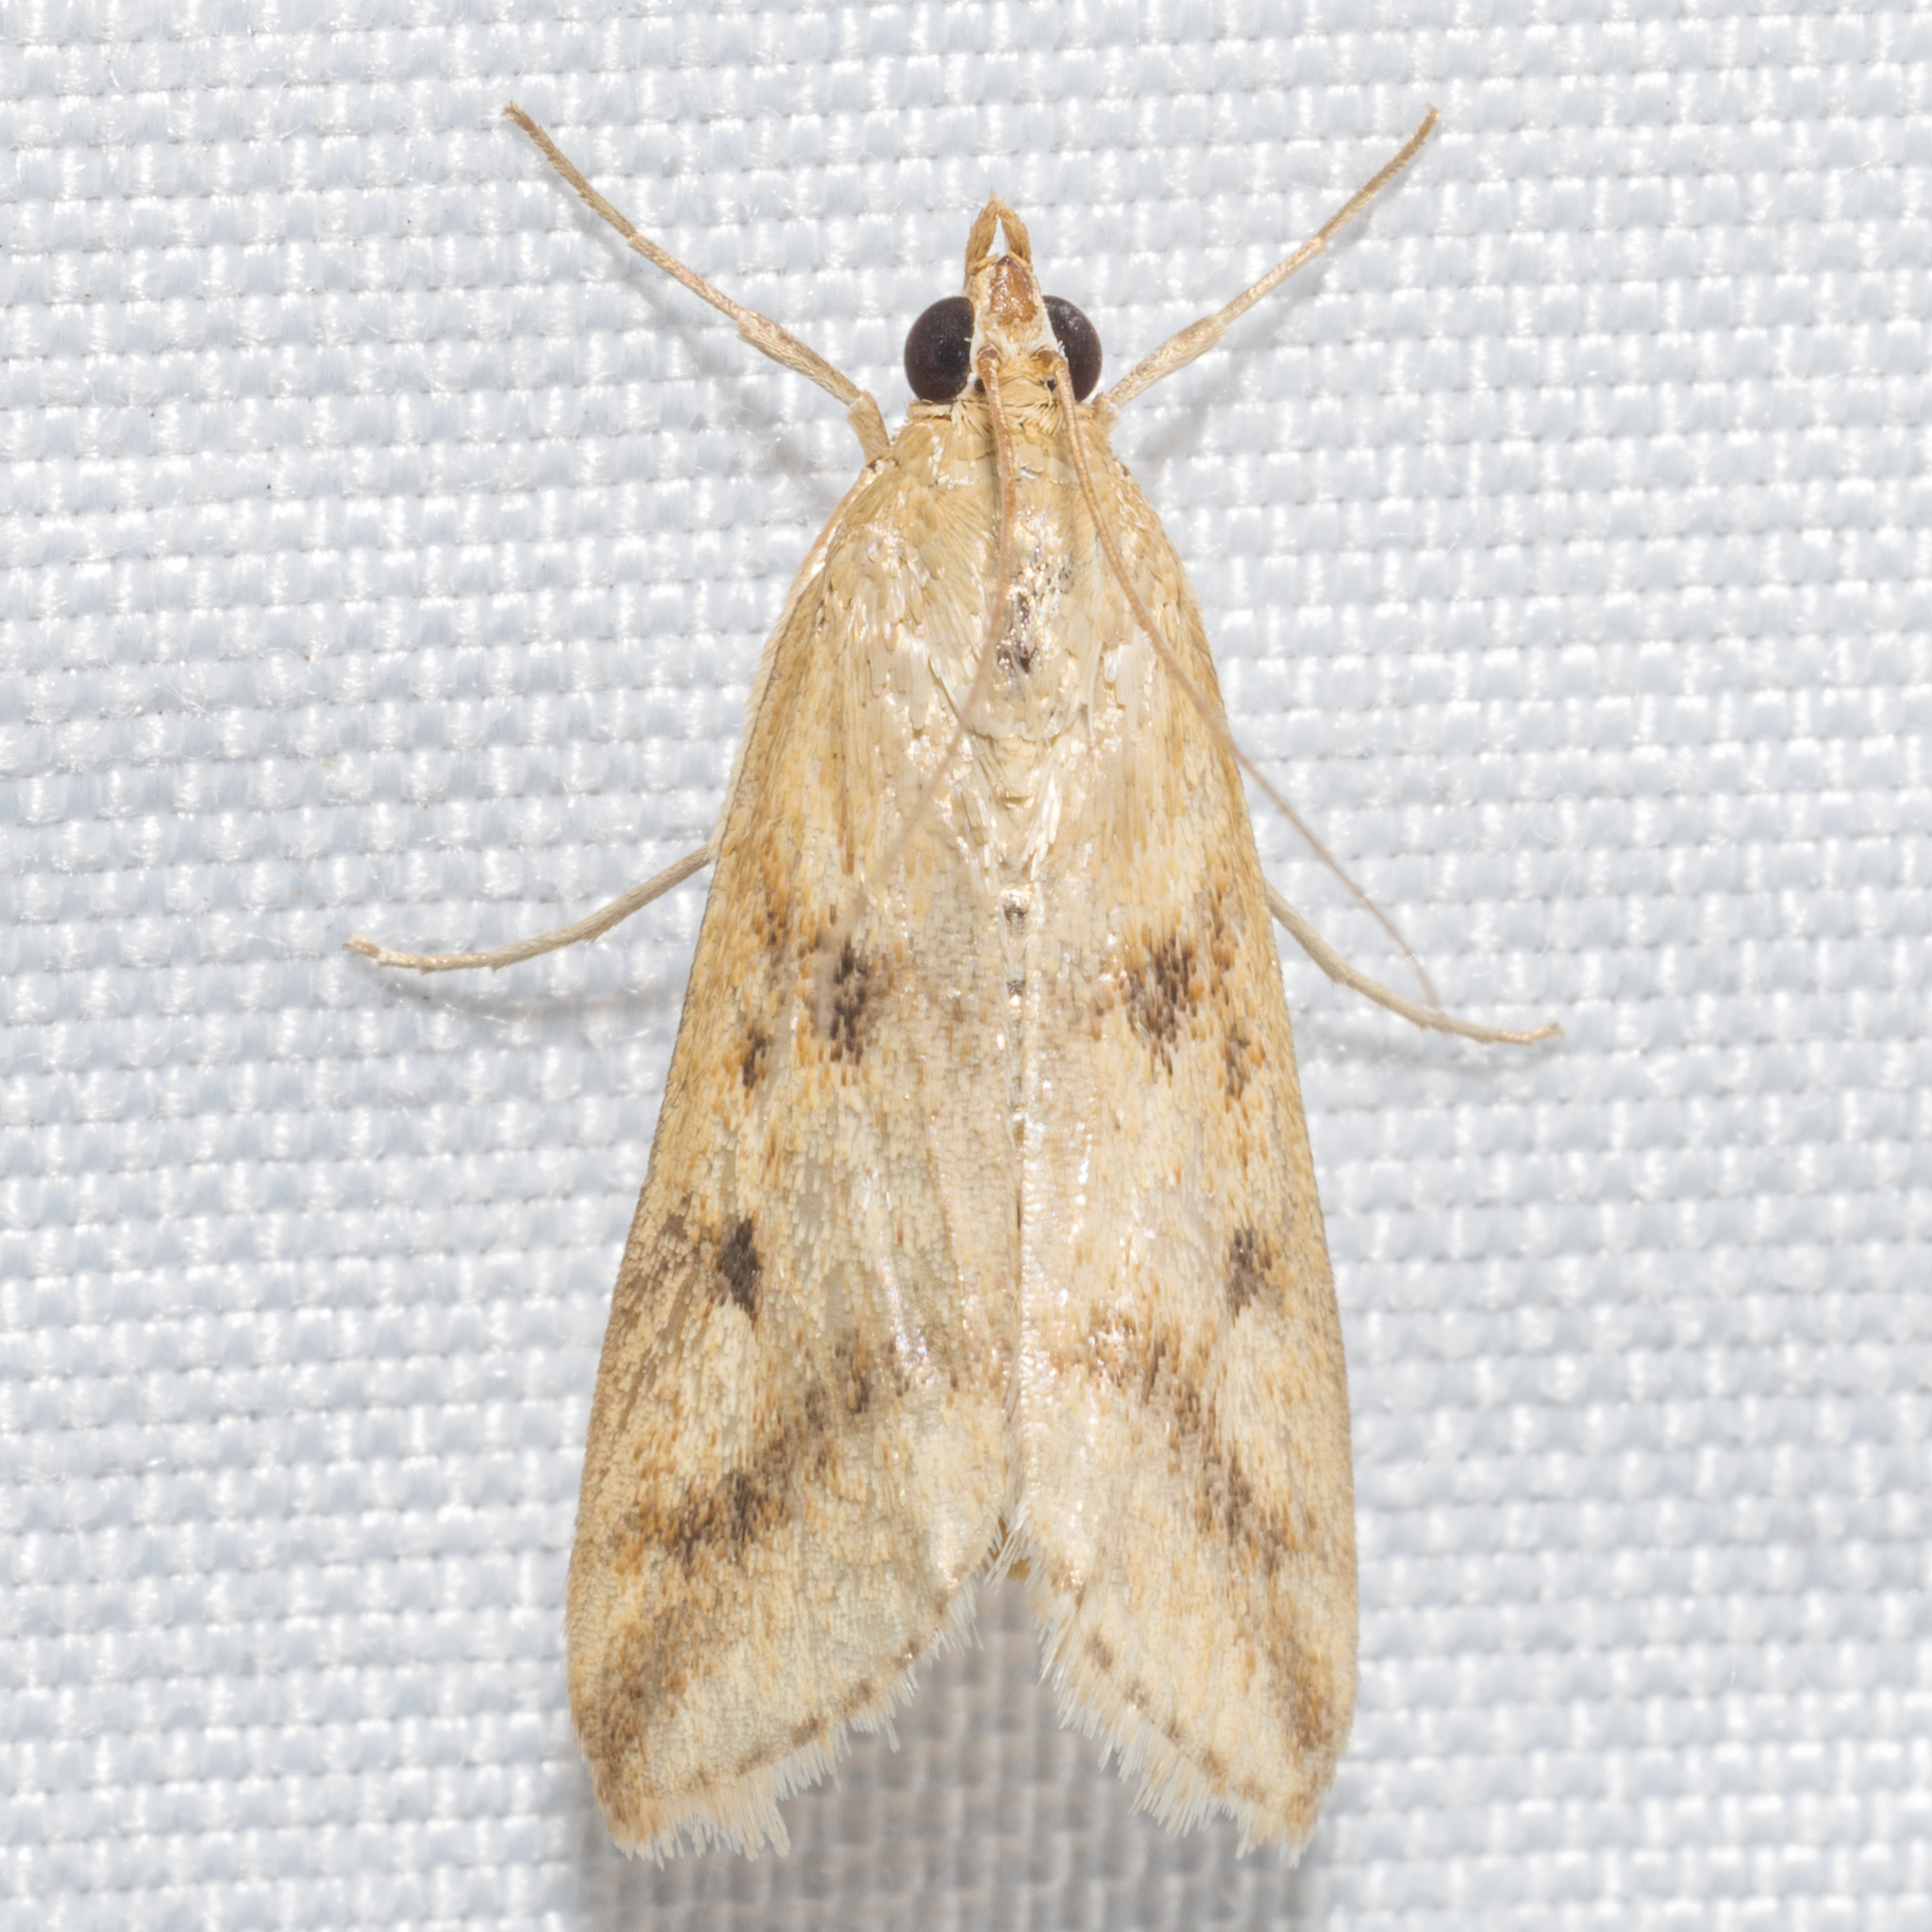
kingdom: Animalia
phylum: Arthropoda
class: Insecta
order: Lepidoptera
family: Crambidae
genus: Achyra
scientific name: Achyra bifidalis
